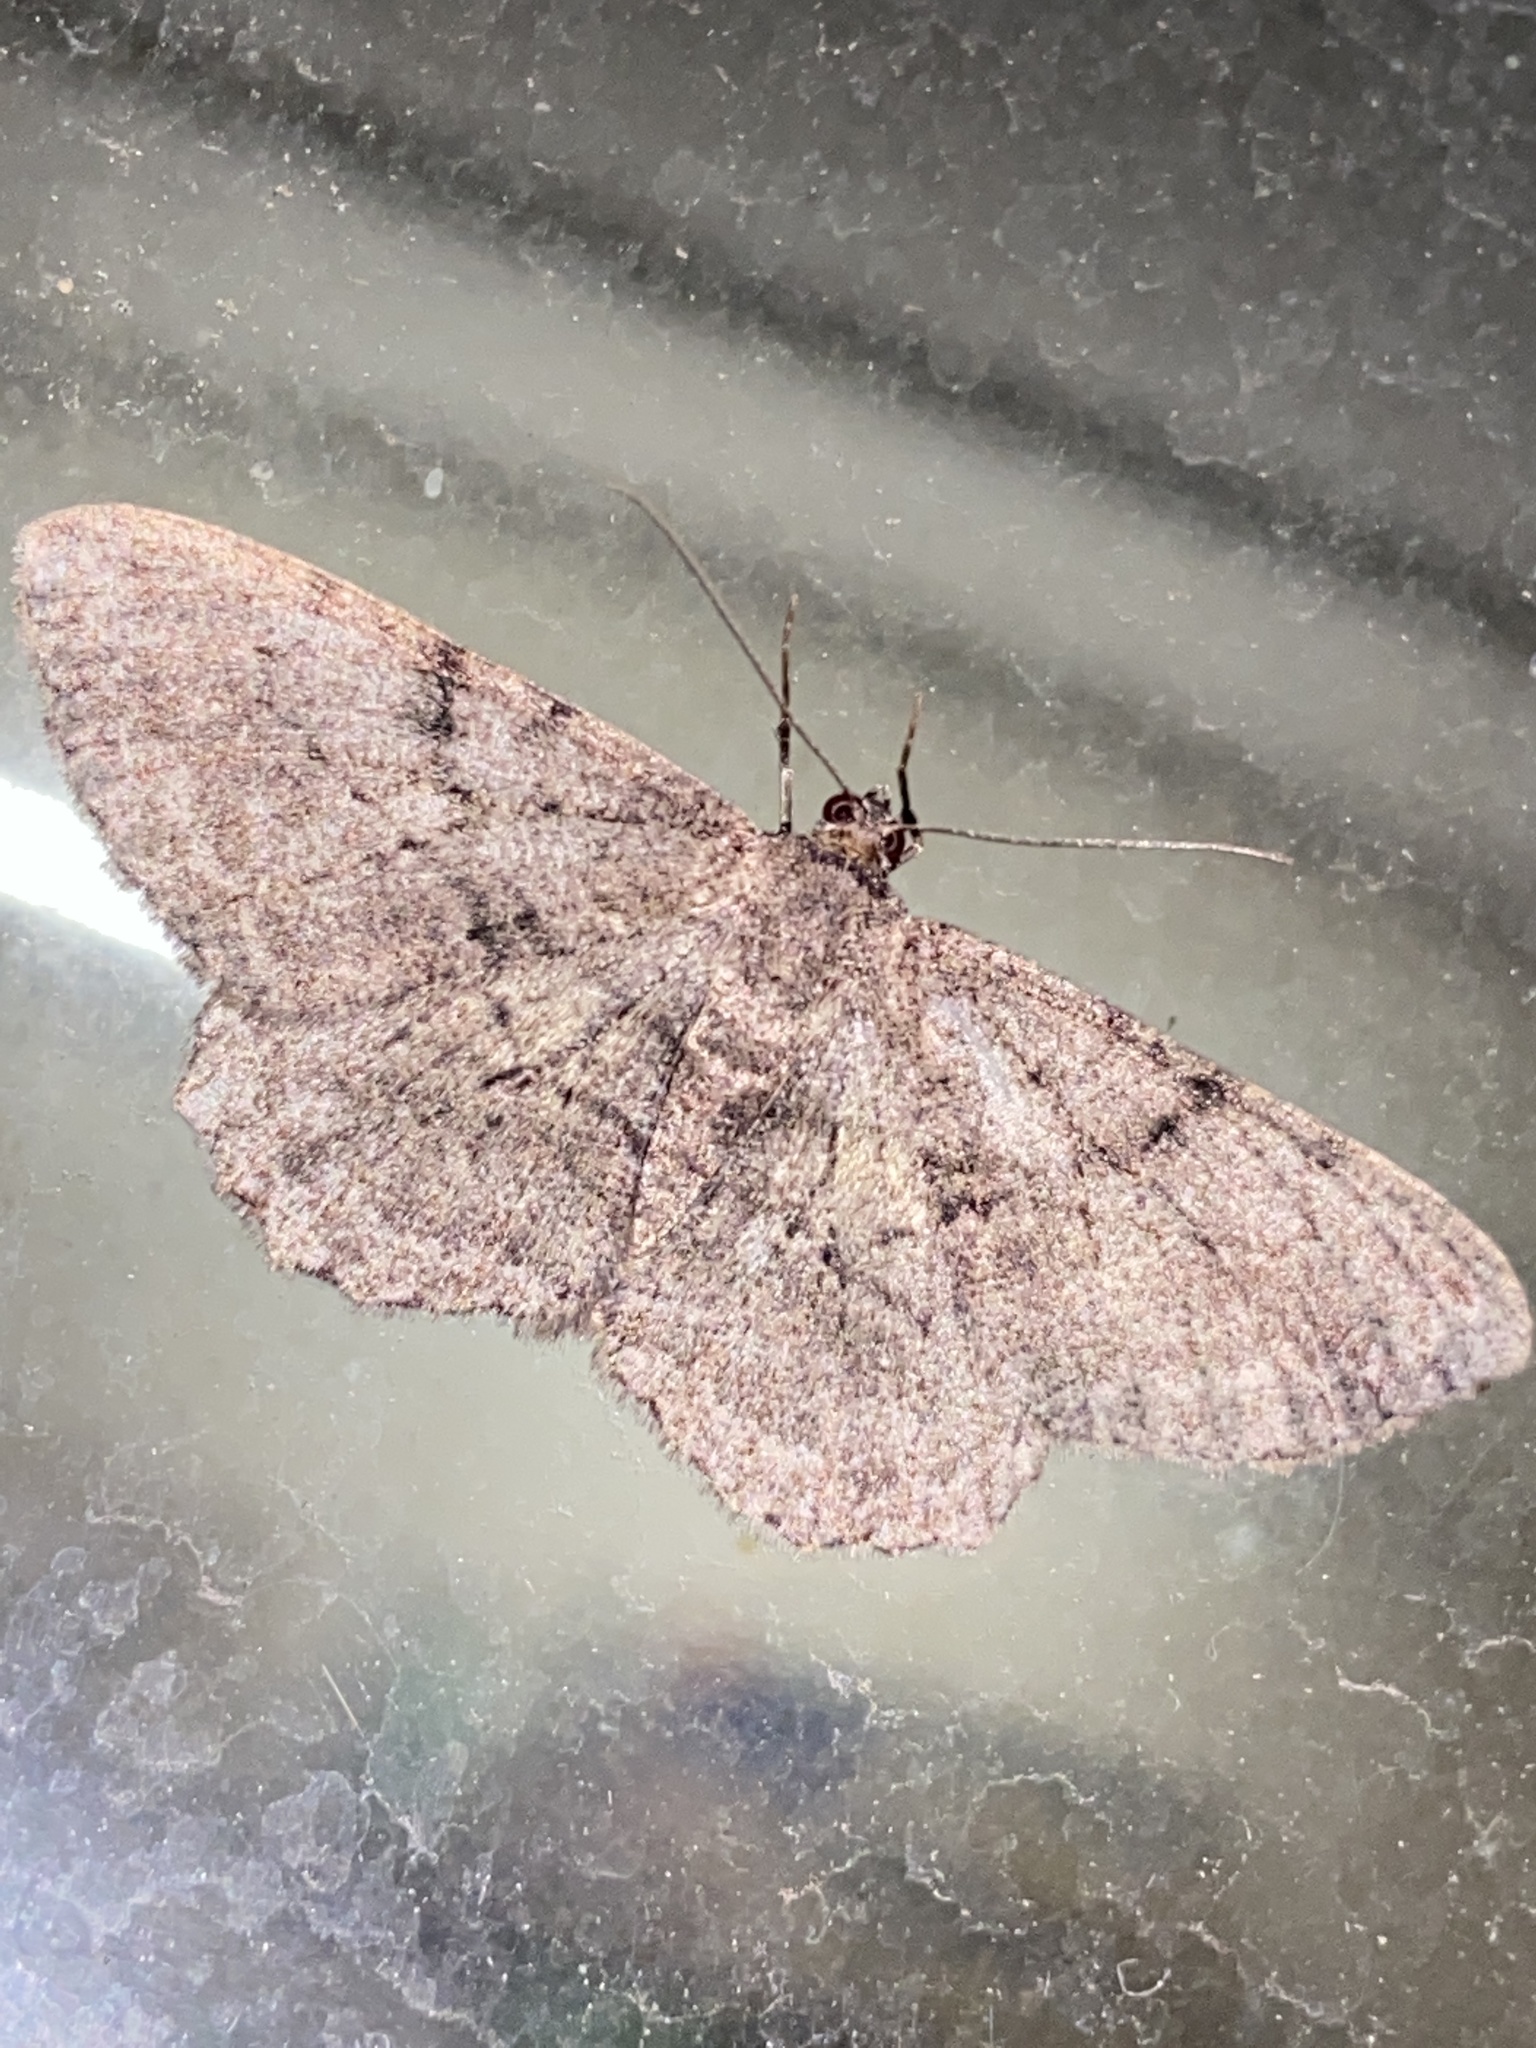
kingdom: Animalia
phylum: Arthropoda
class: Insecta
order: Lepidoptera
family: Geometridae
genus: Peribatodes
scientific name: Peribatodes rhomboidaria
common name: Willow beauty
